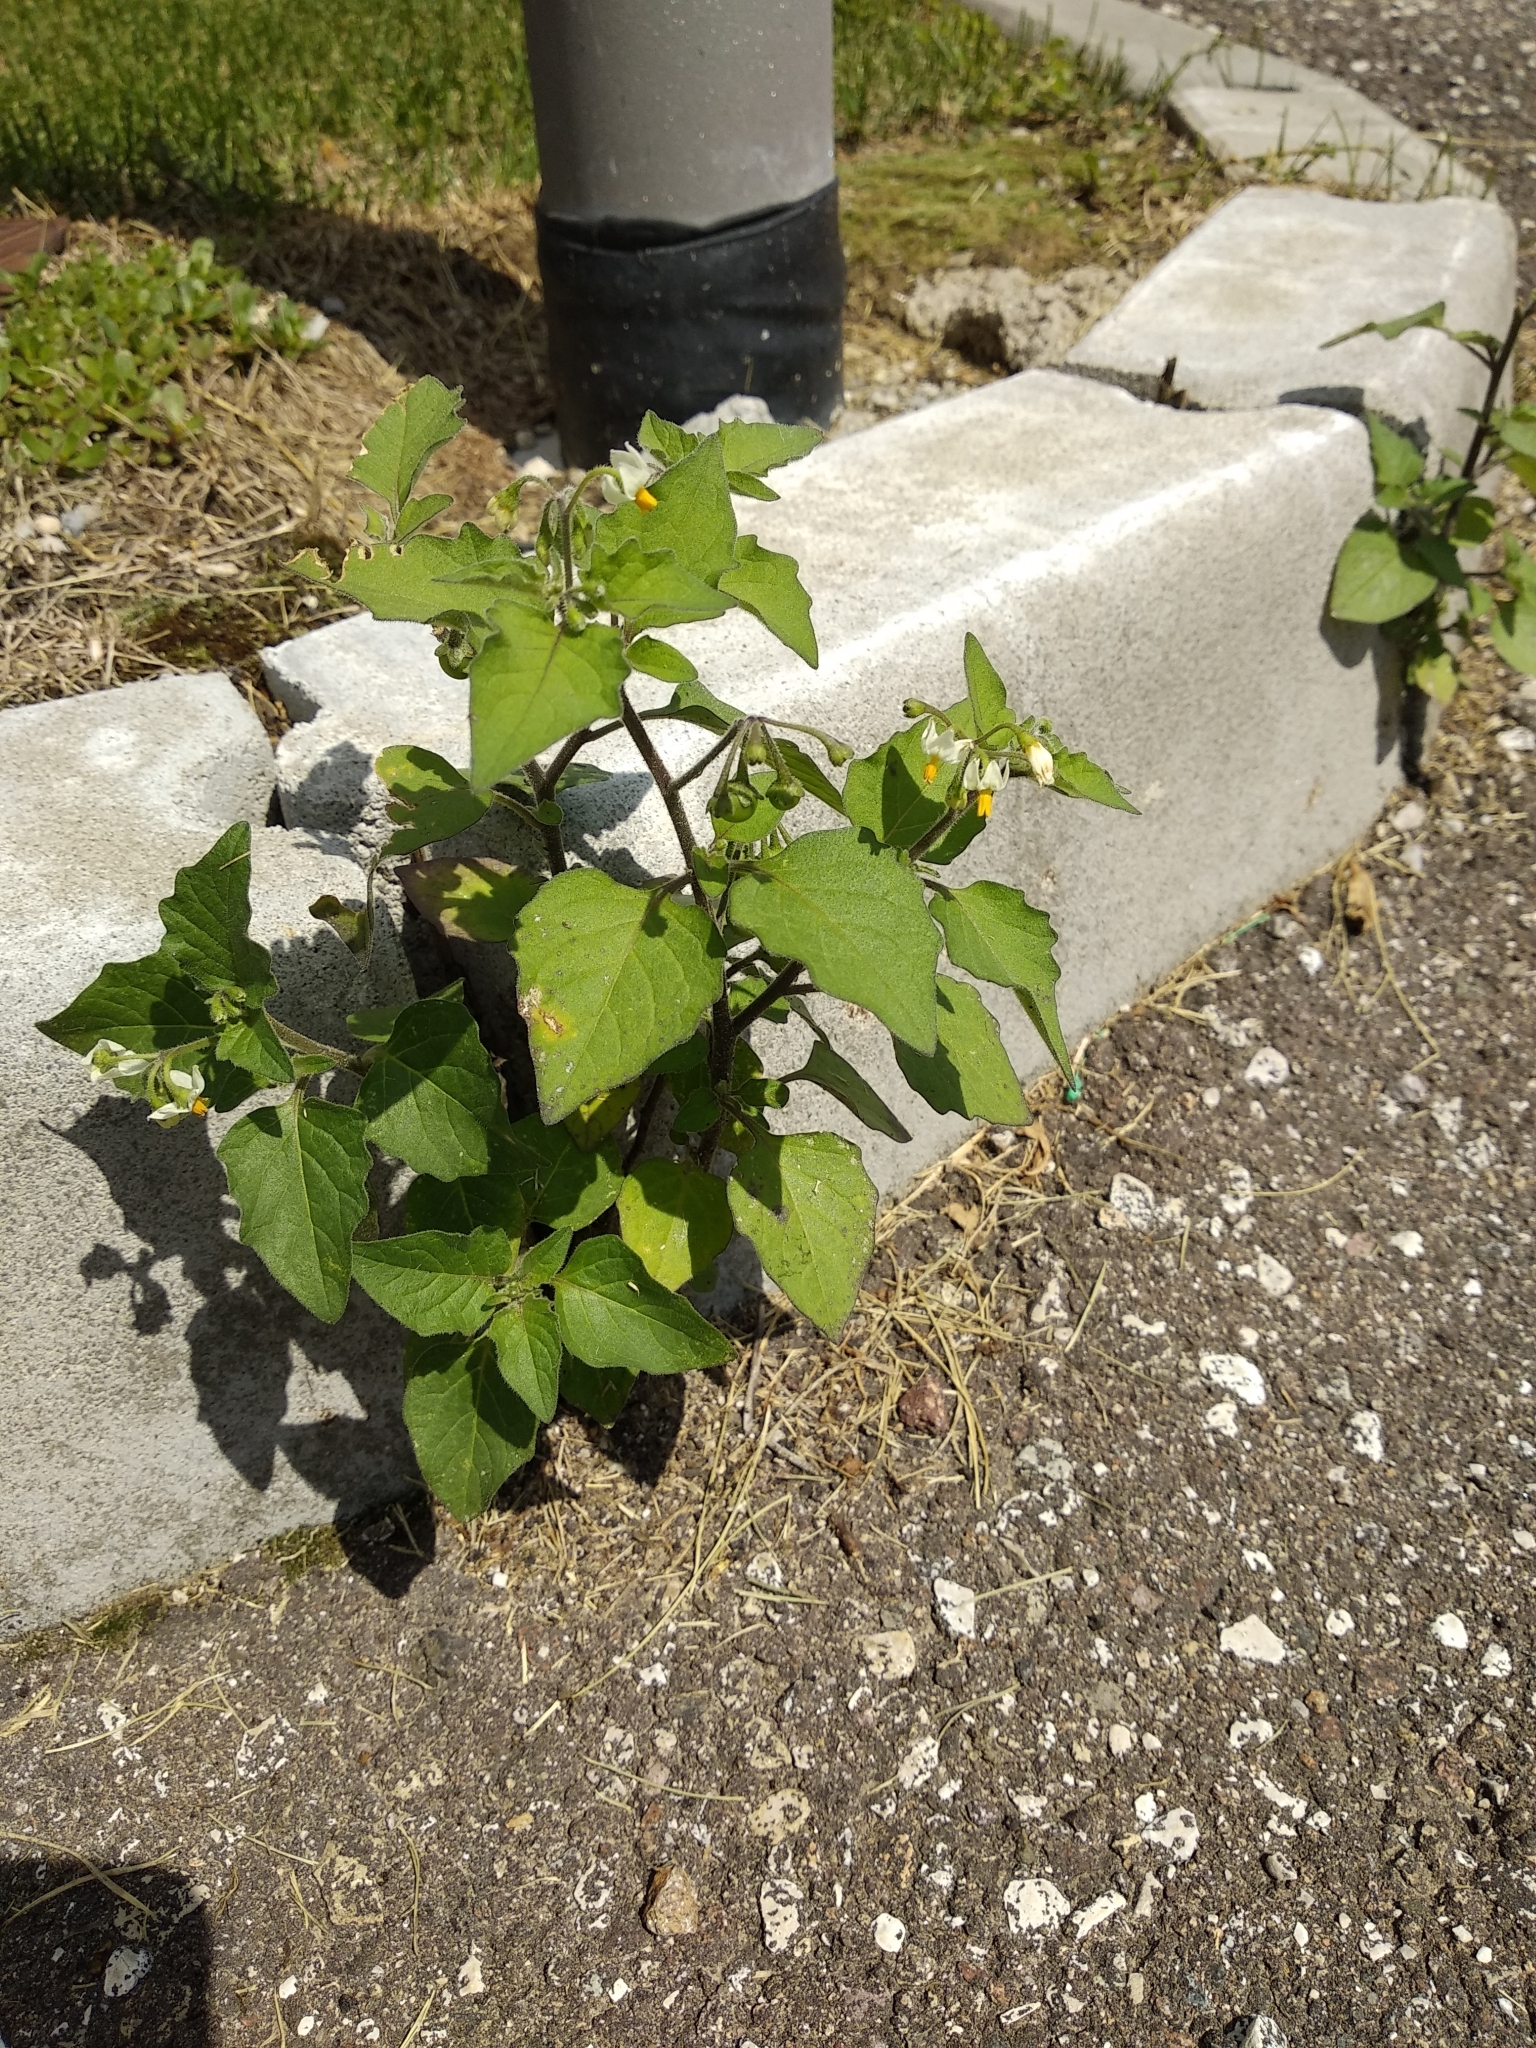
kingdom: Plantae
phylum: Tracheophyta
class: Magnoliopsida
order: Solanales
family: Solanaceae
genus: Solanum
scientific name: Solanum nigrum
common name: Black nightshade
